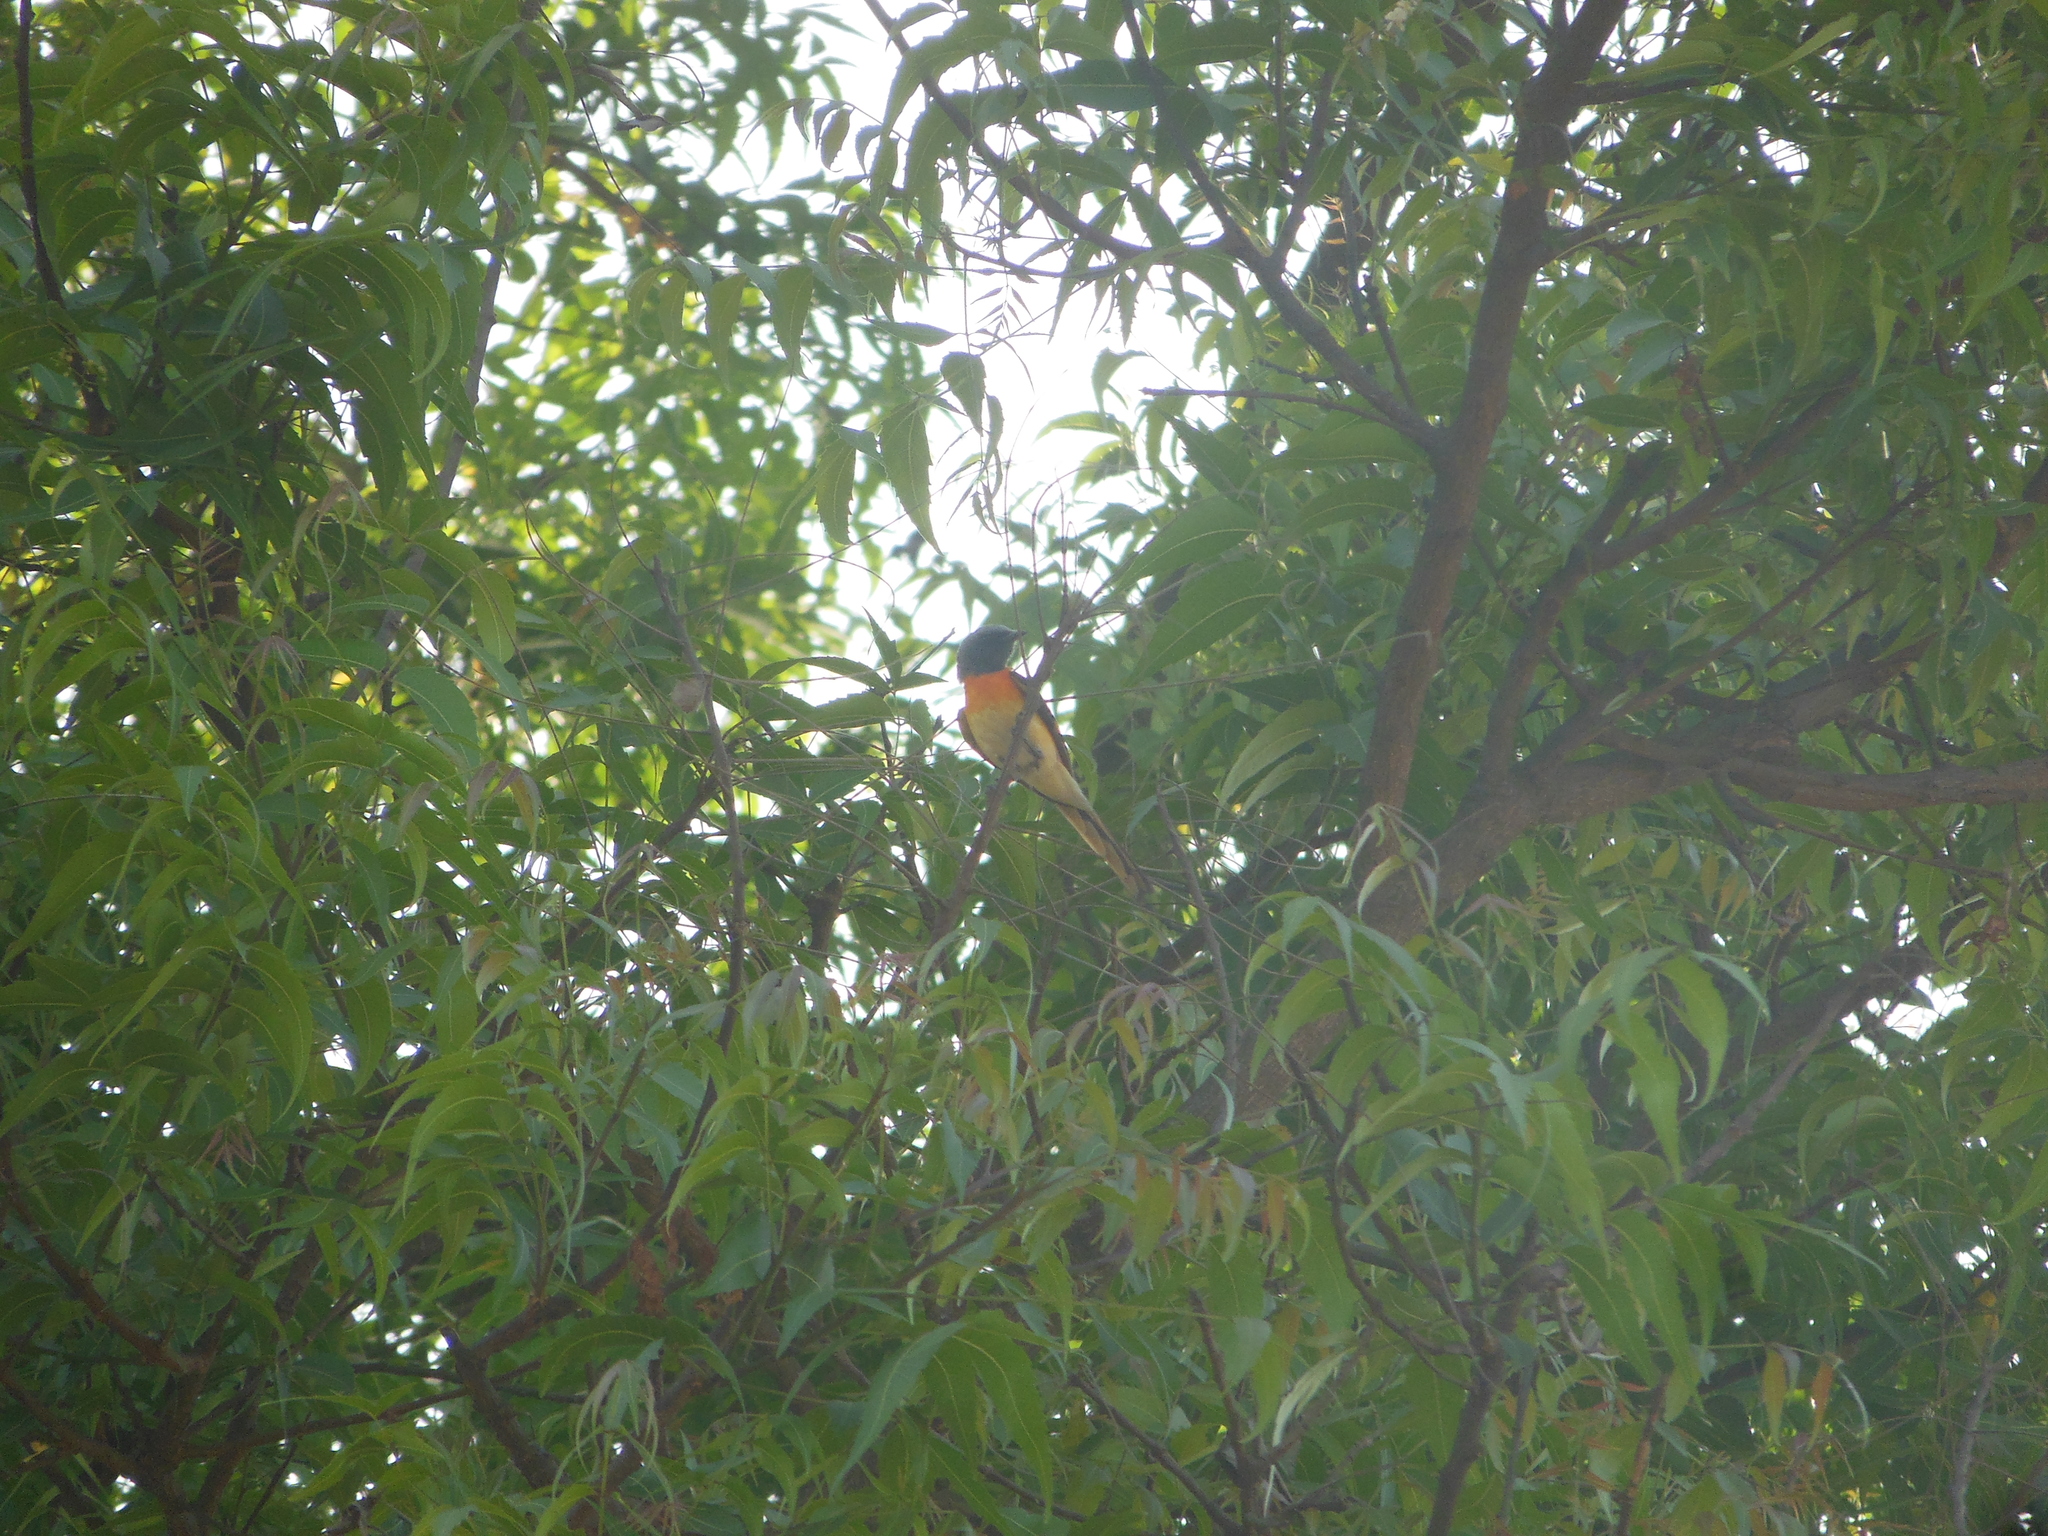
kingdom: Animalia
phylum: Chordata
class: Aves
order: Passeriformes
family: Campephagidae
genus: Pericrocotus
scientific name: Pericrocotus cinnamomeus
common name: Small minivet
